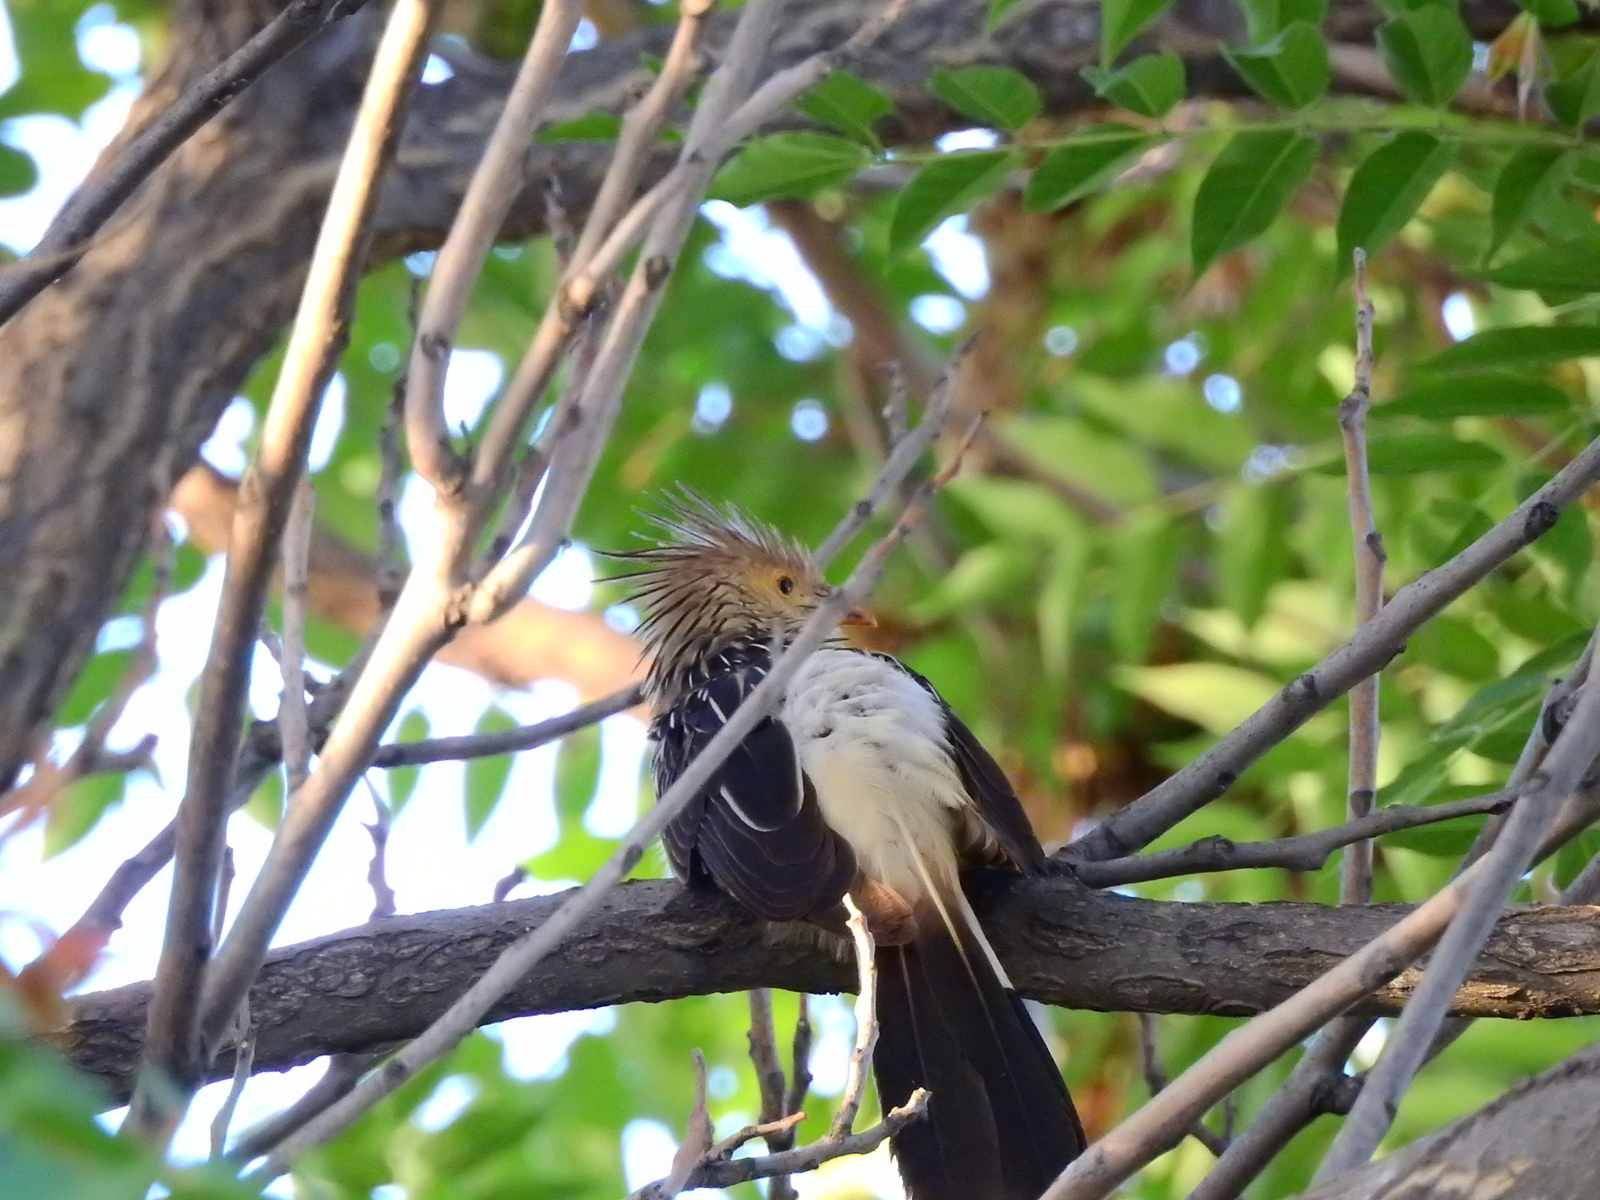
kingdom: Animalia
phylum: Chordata
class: Aves
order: Cuculiformes
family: Cuculidae
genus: Guira
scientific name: Guira guira
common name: Guira cuckoo
